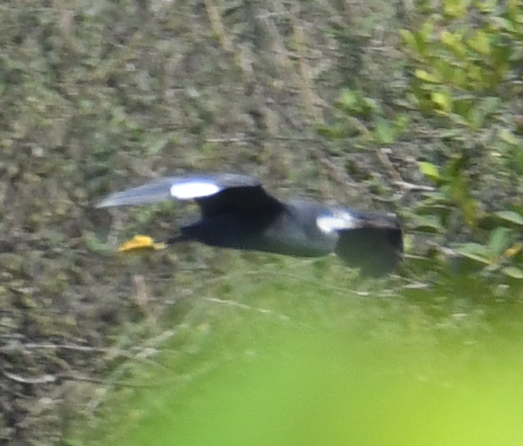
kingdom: Animalia
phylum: Chordata
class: Aves
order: Pelecaniformes
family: Ardeidae
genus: Egretta
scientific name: Egretta gularis
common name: Western reef-heron
